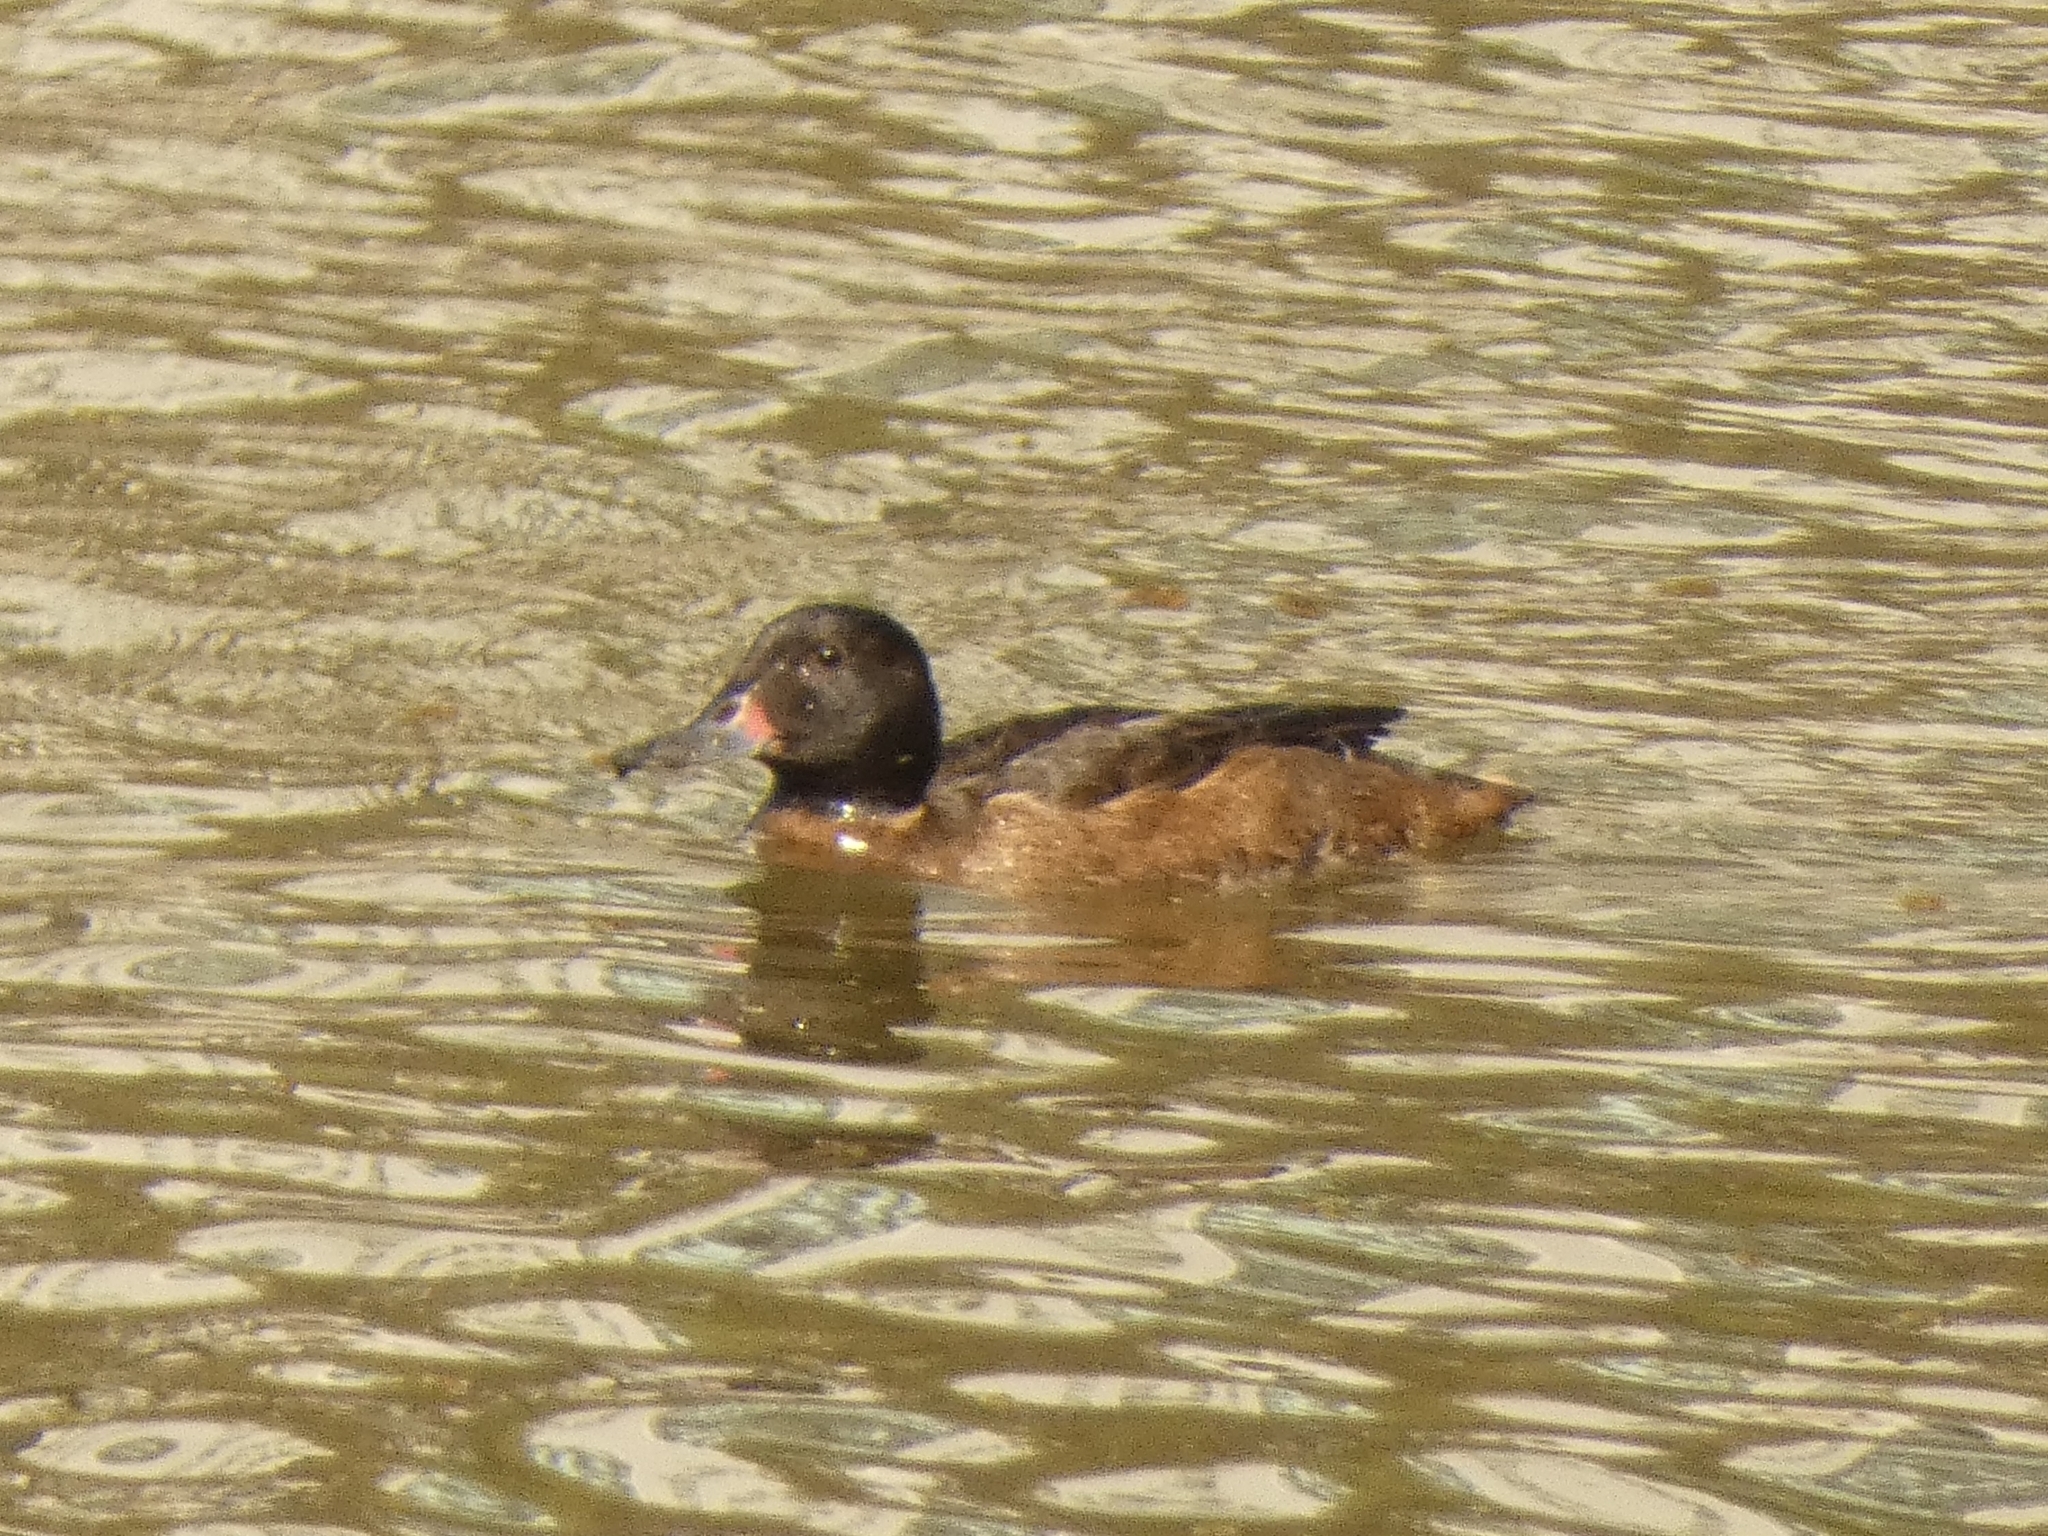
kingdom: Animalia
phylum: Chordata
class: Aves
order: Anseriformes
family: Anatidae
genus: Heteronetta
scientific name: Heteronetta atricapilla
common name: Black-headed duck
